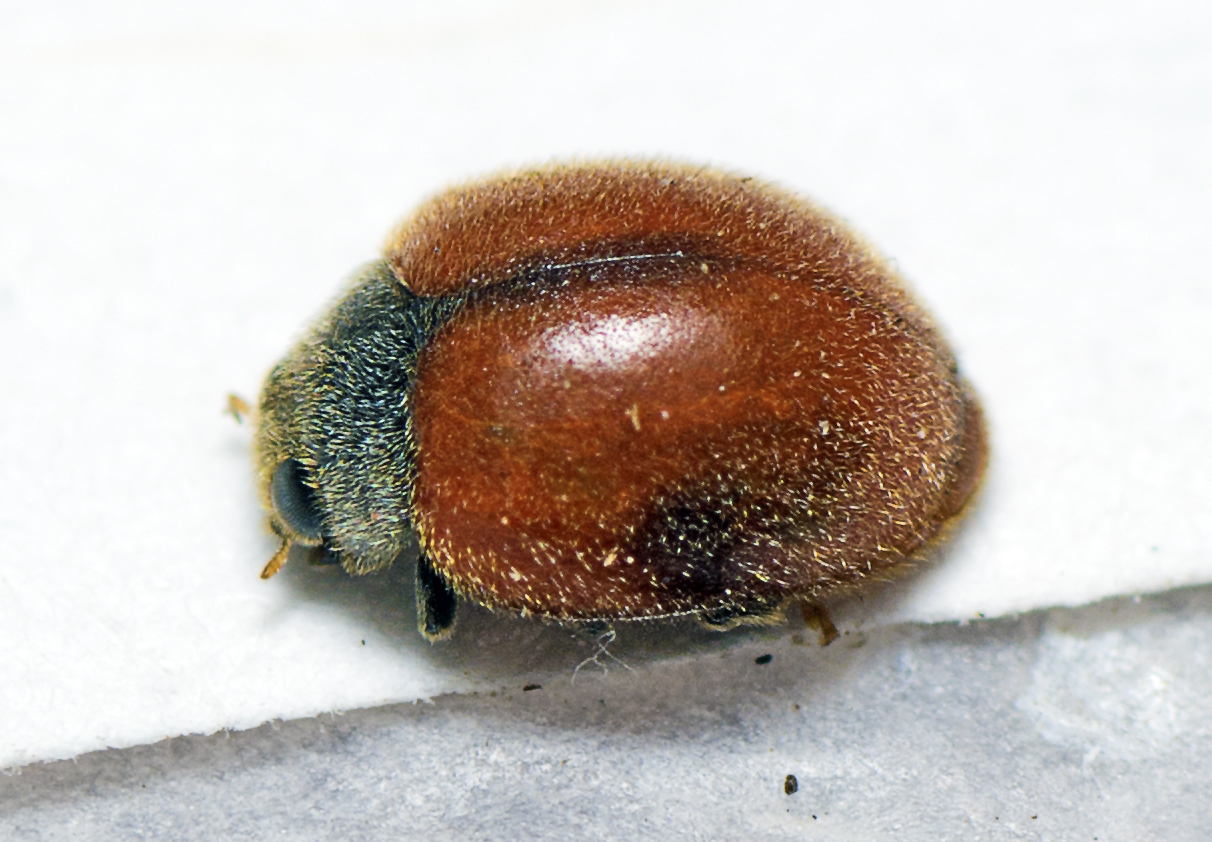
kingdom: Animalia
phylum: Arthropoda
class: Insecta
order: Coleoptera
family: Coccinellidae
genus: Novius
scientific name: Novius koebelei
